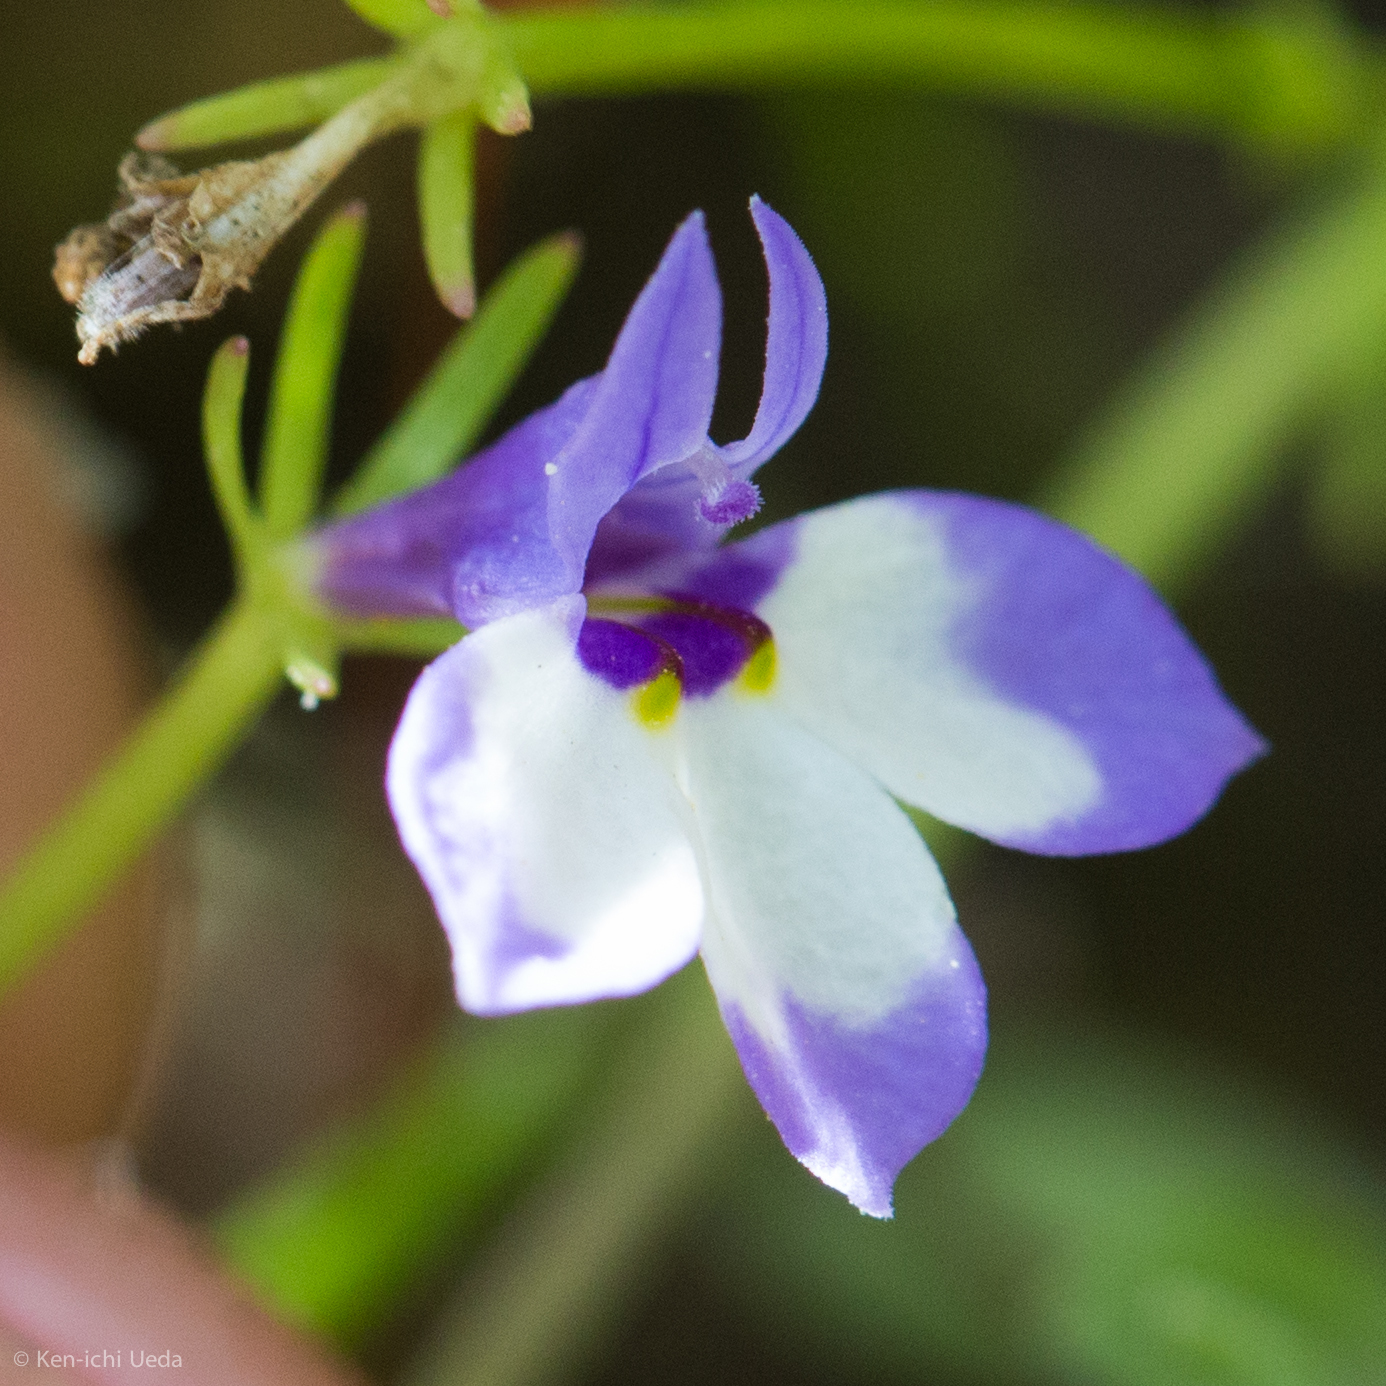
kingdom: Plantae
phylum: Tracheophyta
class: Magnoliopsida
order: Asterales
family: Campanulaceae
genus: Downingia
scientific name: Downingia montana
